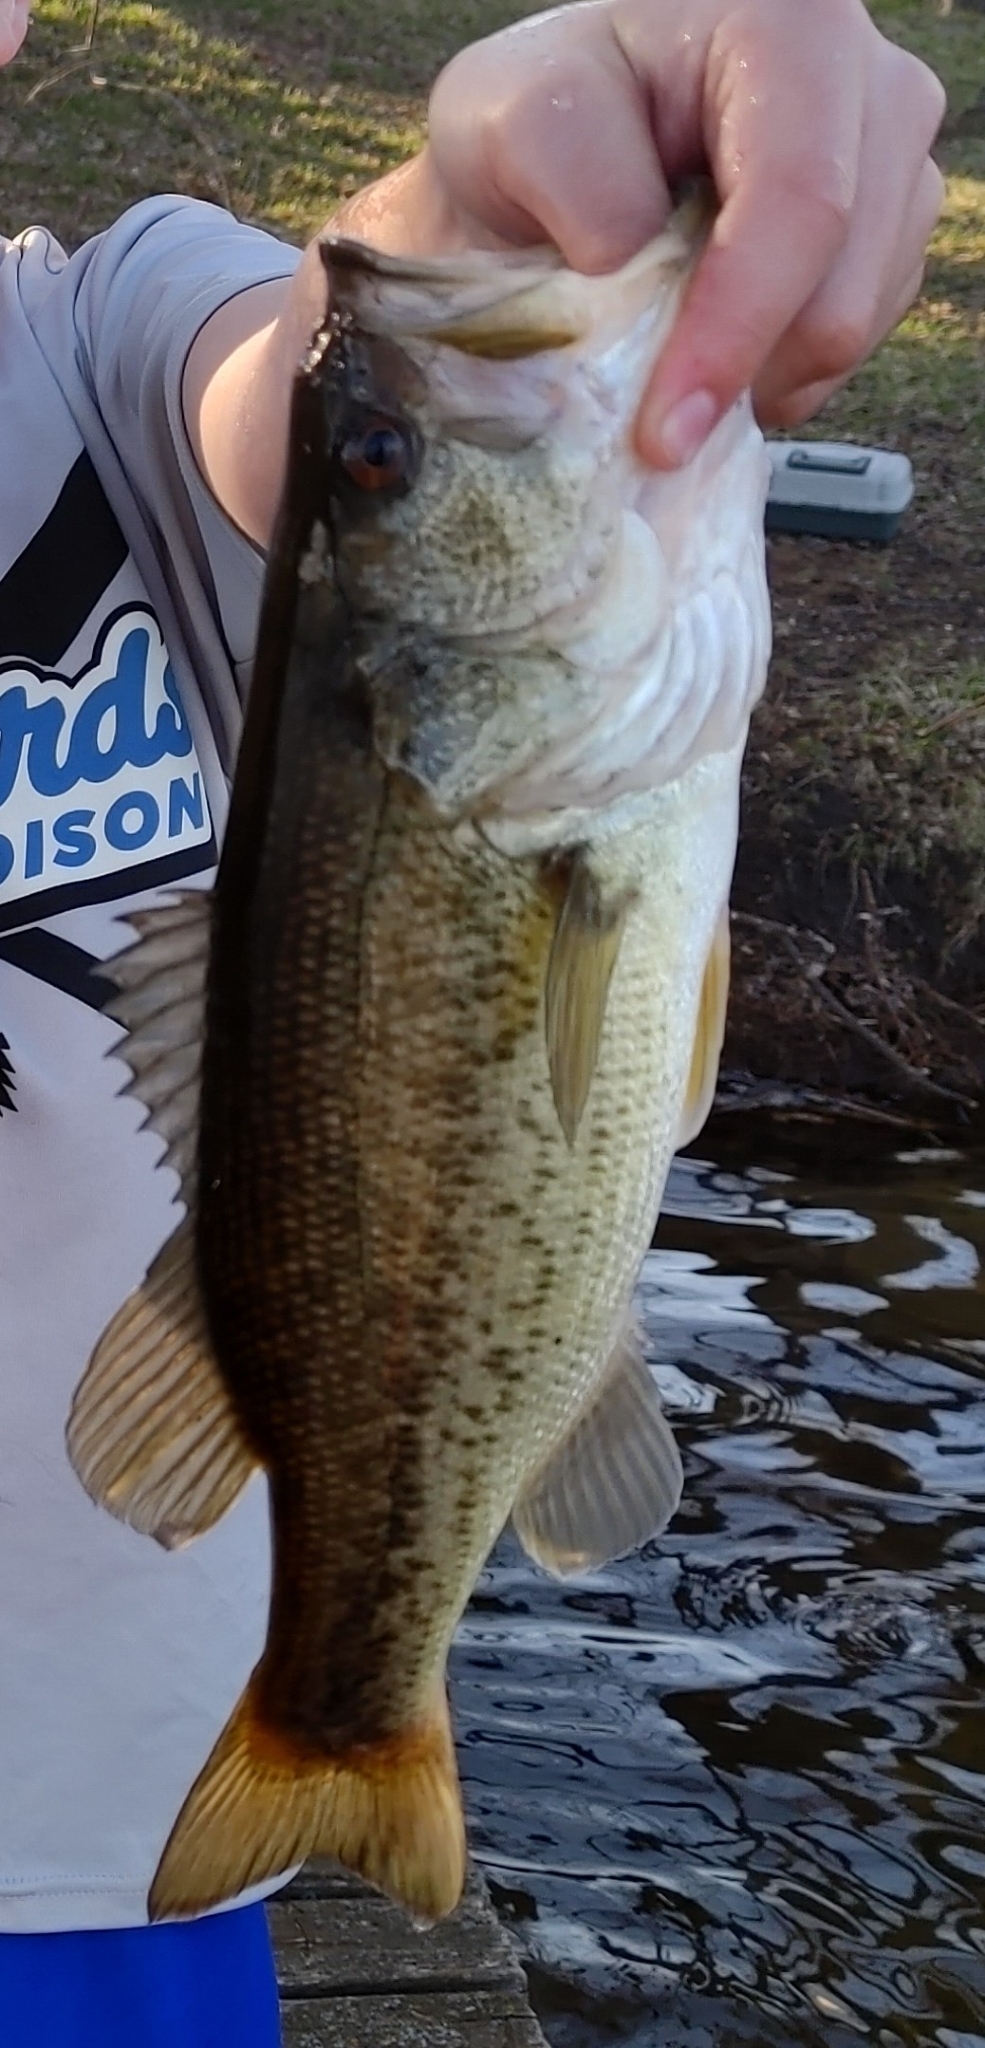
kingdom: Animalia
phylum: Chordata
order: Perciformes
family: Centrarchidae
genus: Micropterus
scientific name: Micropterus
